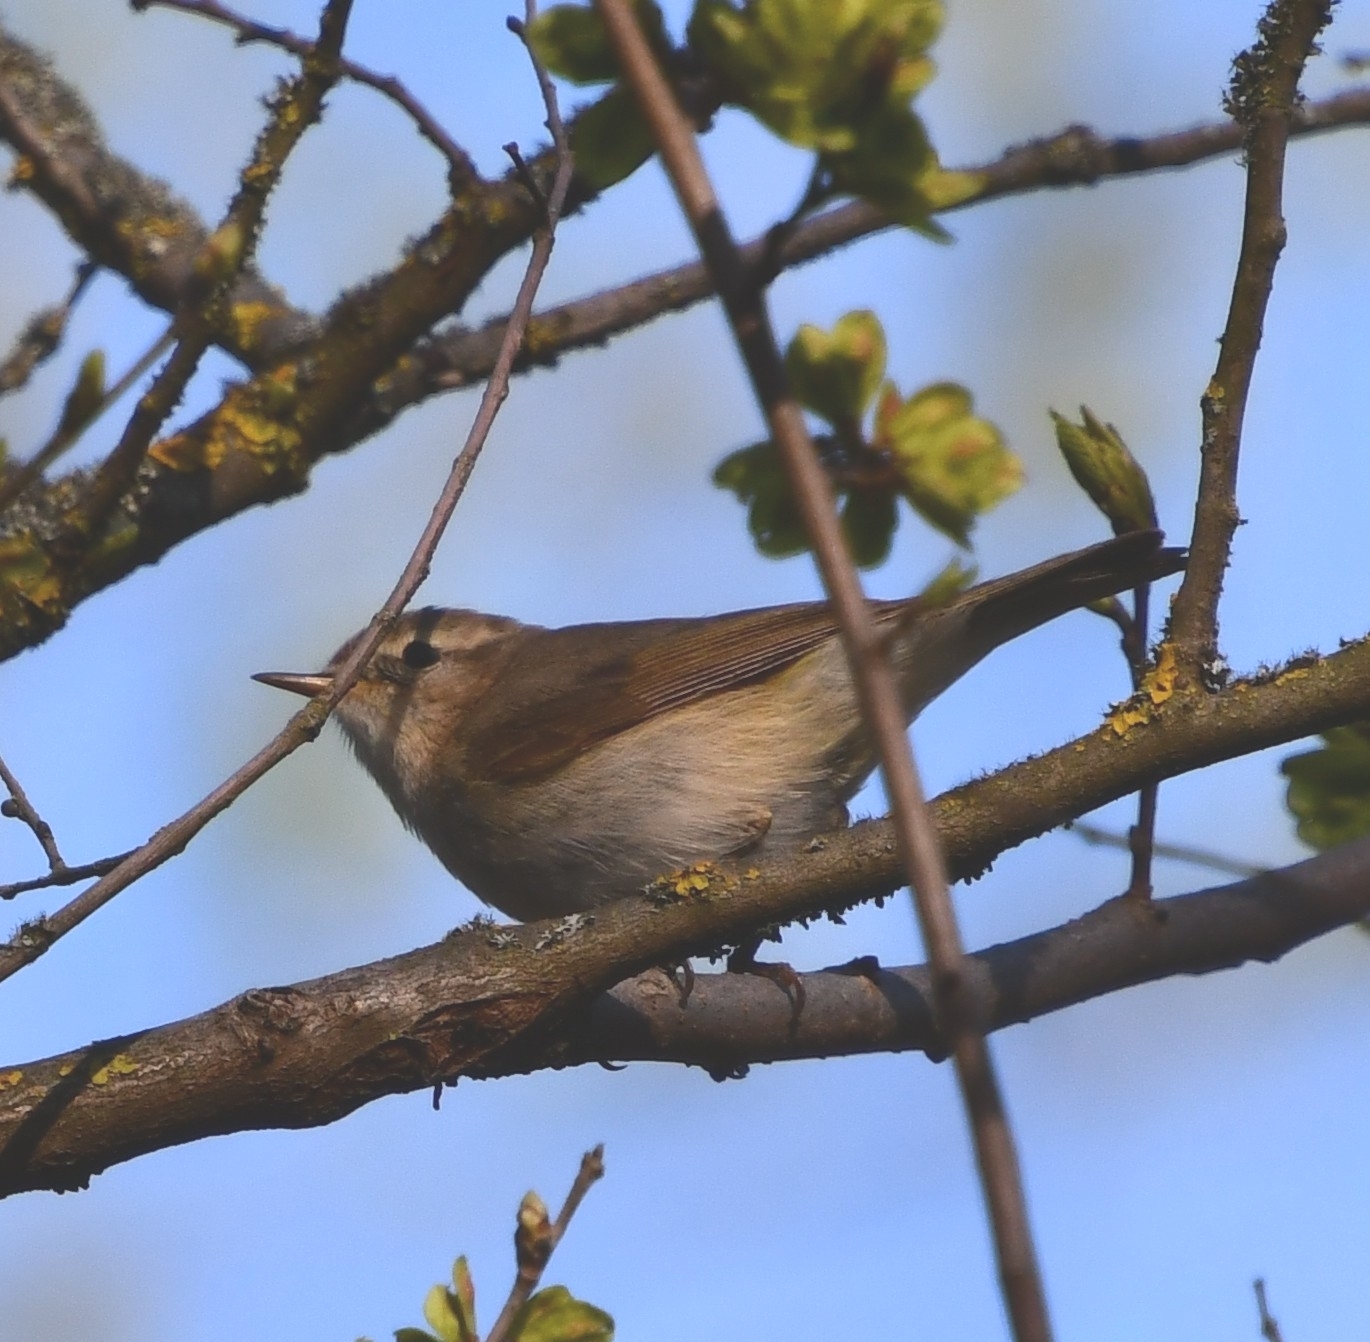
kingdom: Animalia
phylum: Chordata
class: Aves
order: Passeriformes
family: Phylloscopidae
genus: Phylloscopus
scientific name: Phylloscopus collybita
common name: Common chiffchaff
